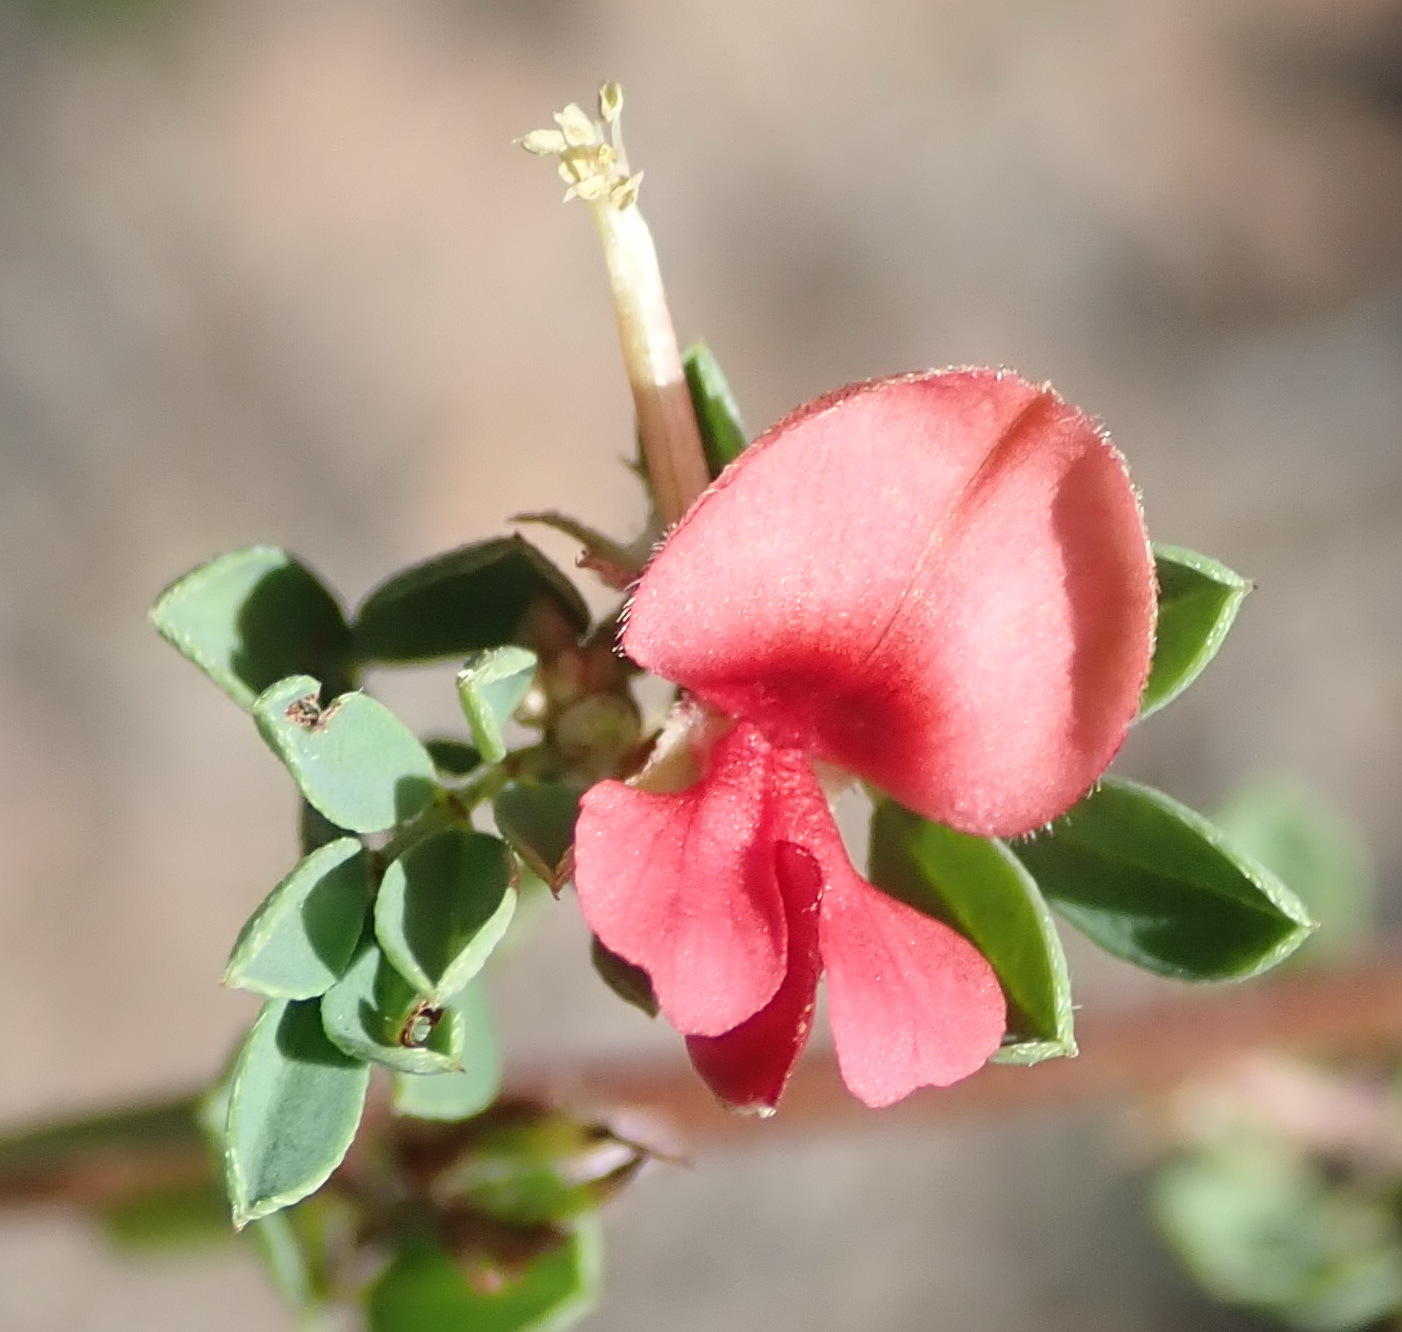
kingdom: Plantae
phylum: Tracheophyta
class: Magnoliopsida
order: Fabales
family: Fabaceae
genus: Indigofera
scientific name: Indigofera poliotes
